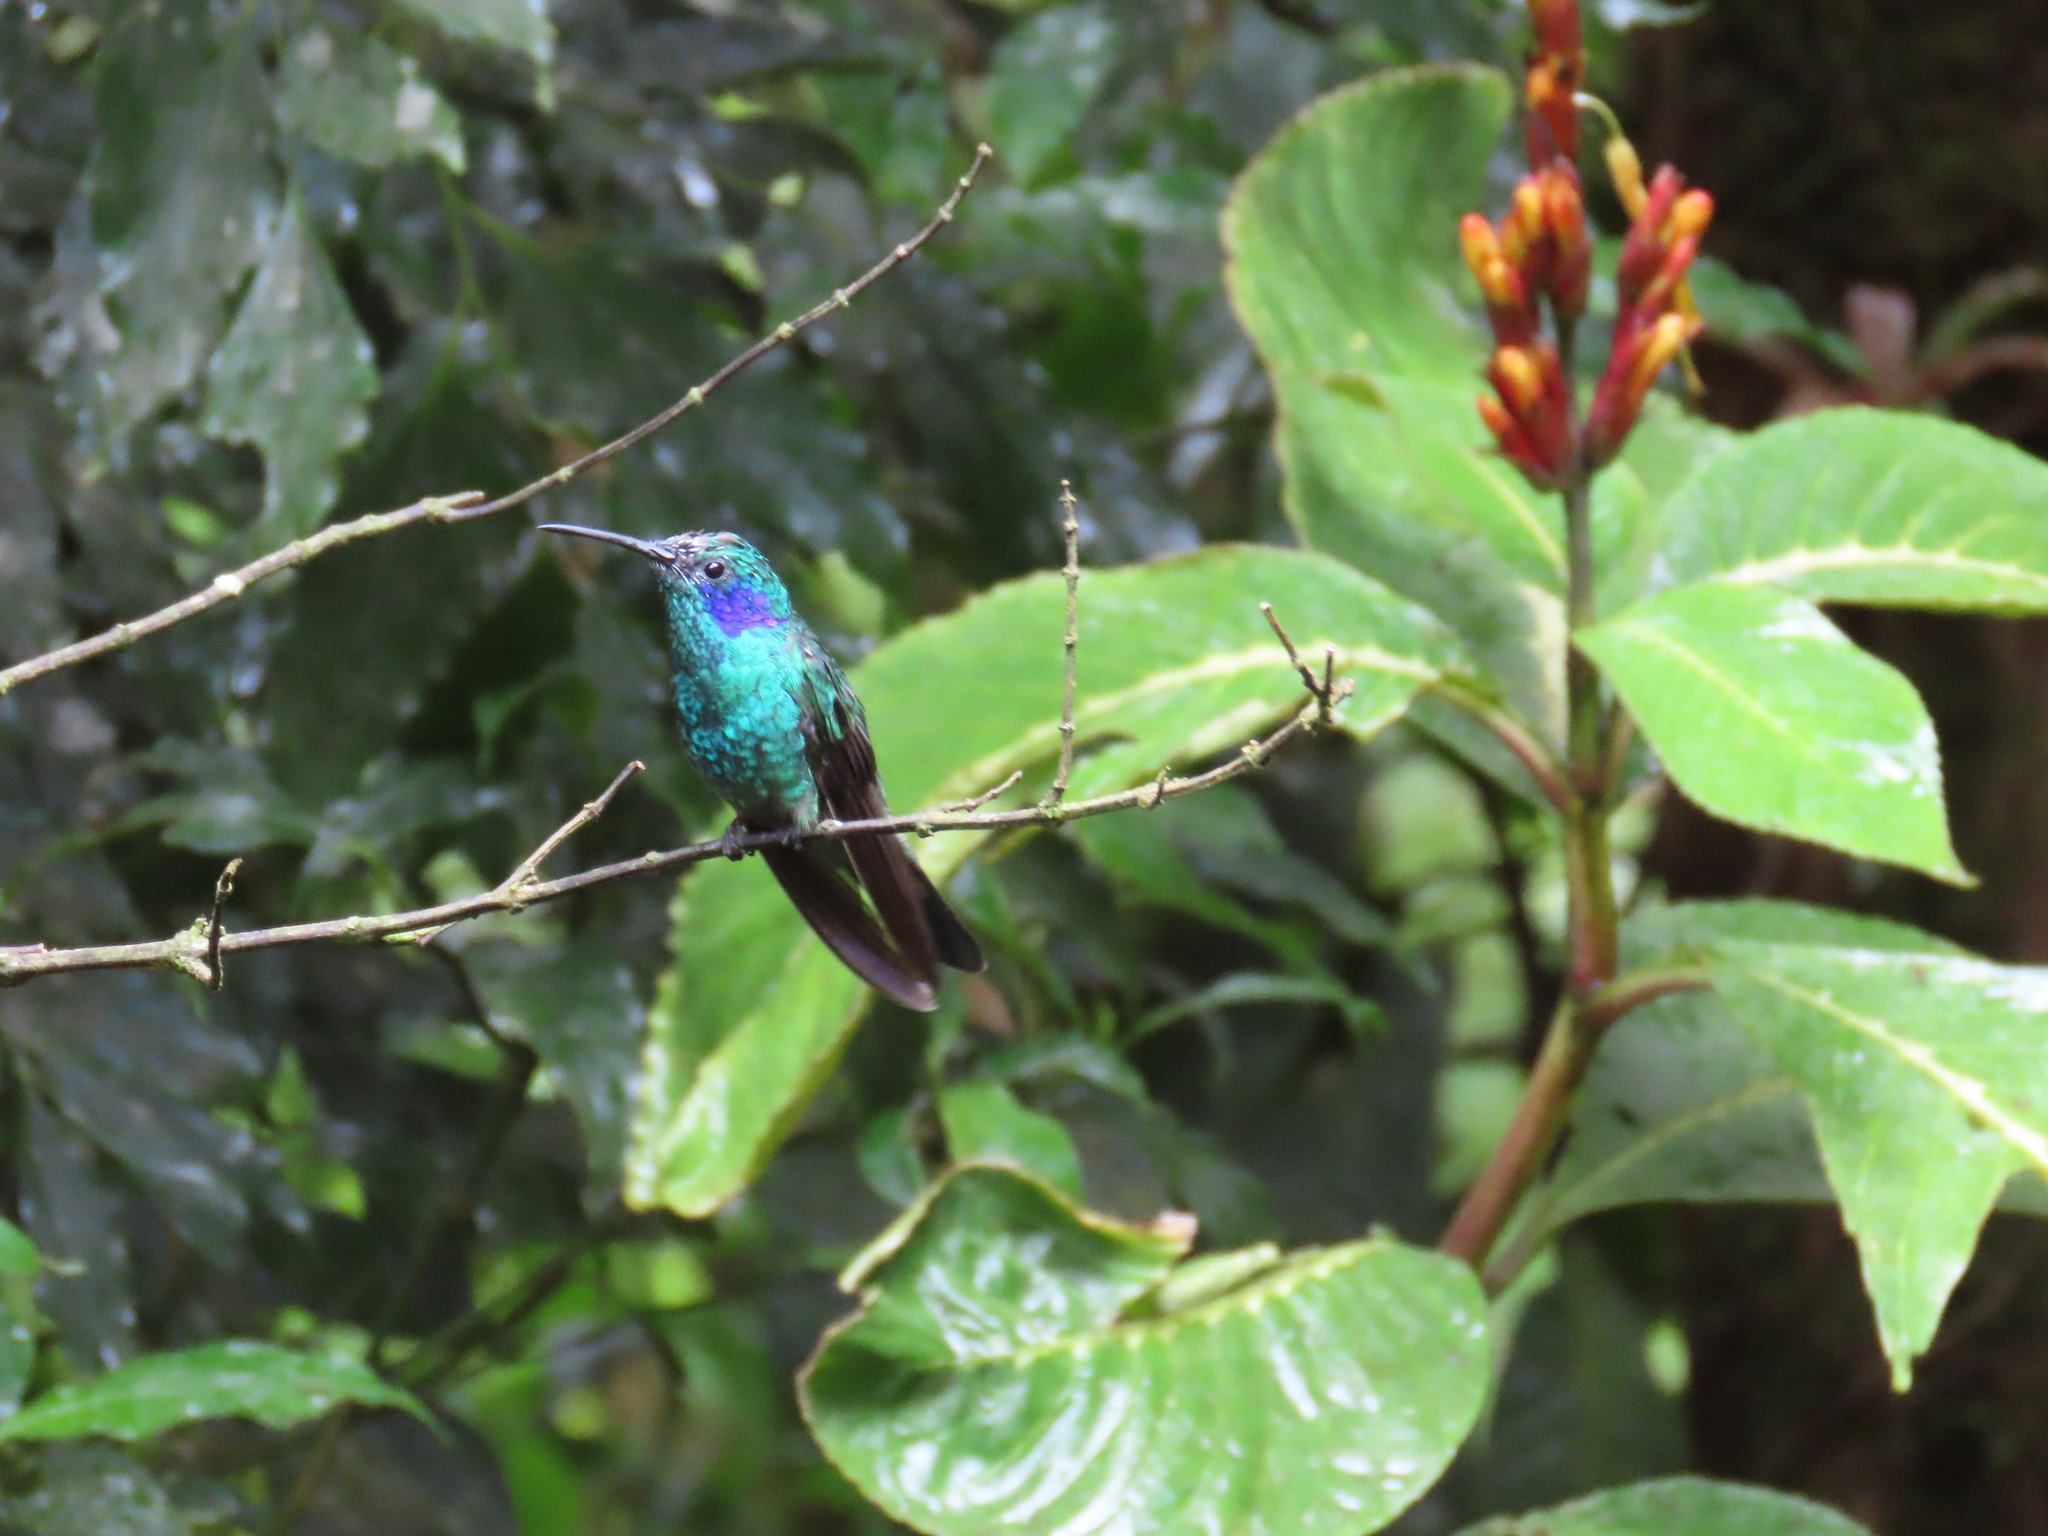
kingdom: Animalia
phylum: Chordata
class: Aves
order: Apodiformes
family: Trochilidae
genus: Colibri
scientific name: Colibri cyanotus
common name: Lesser violetear
